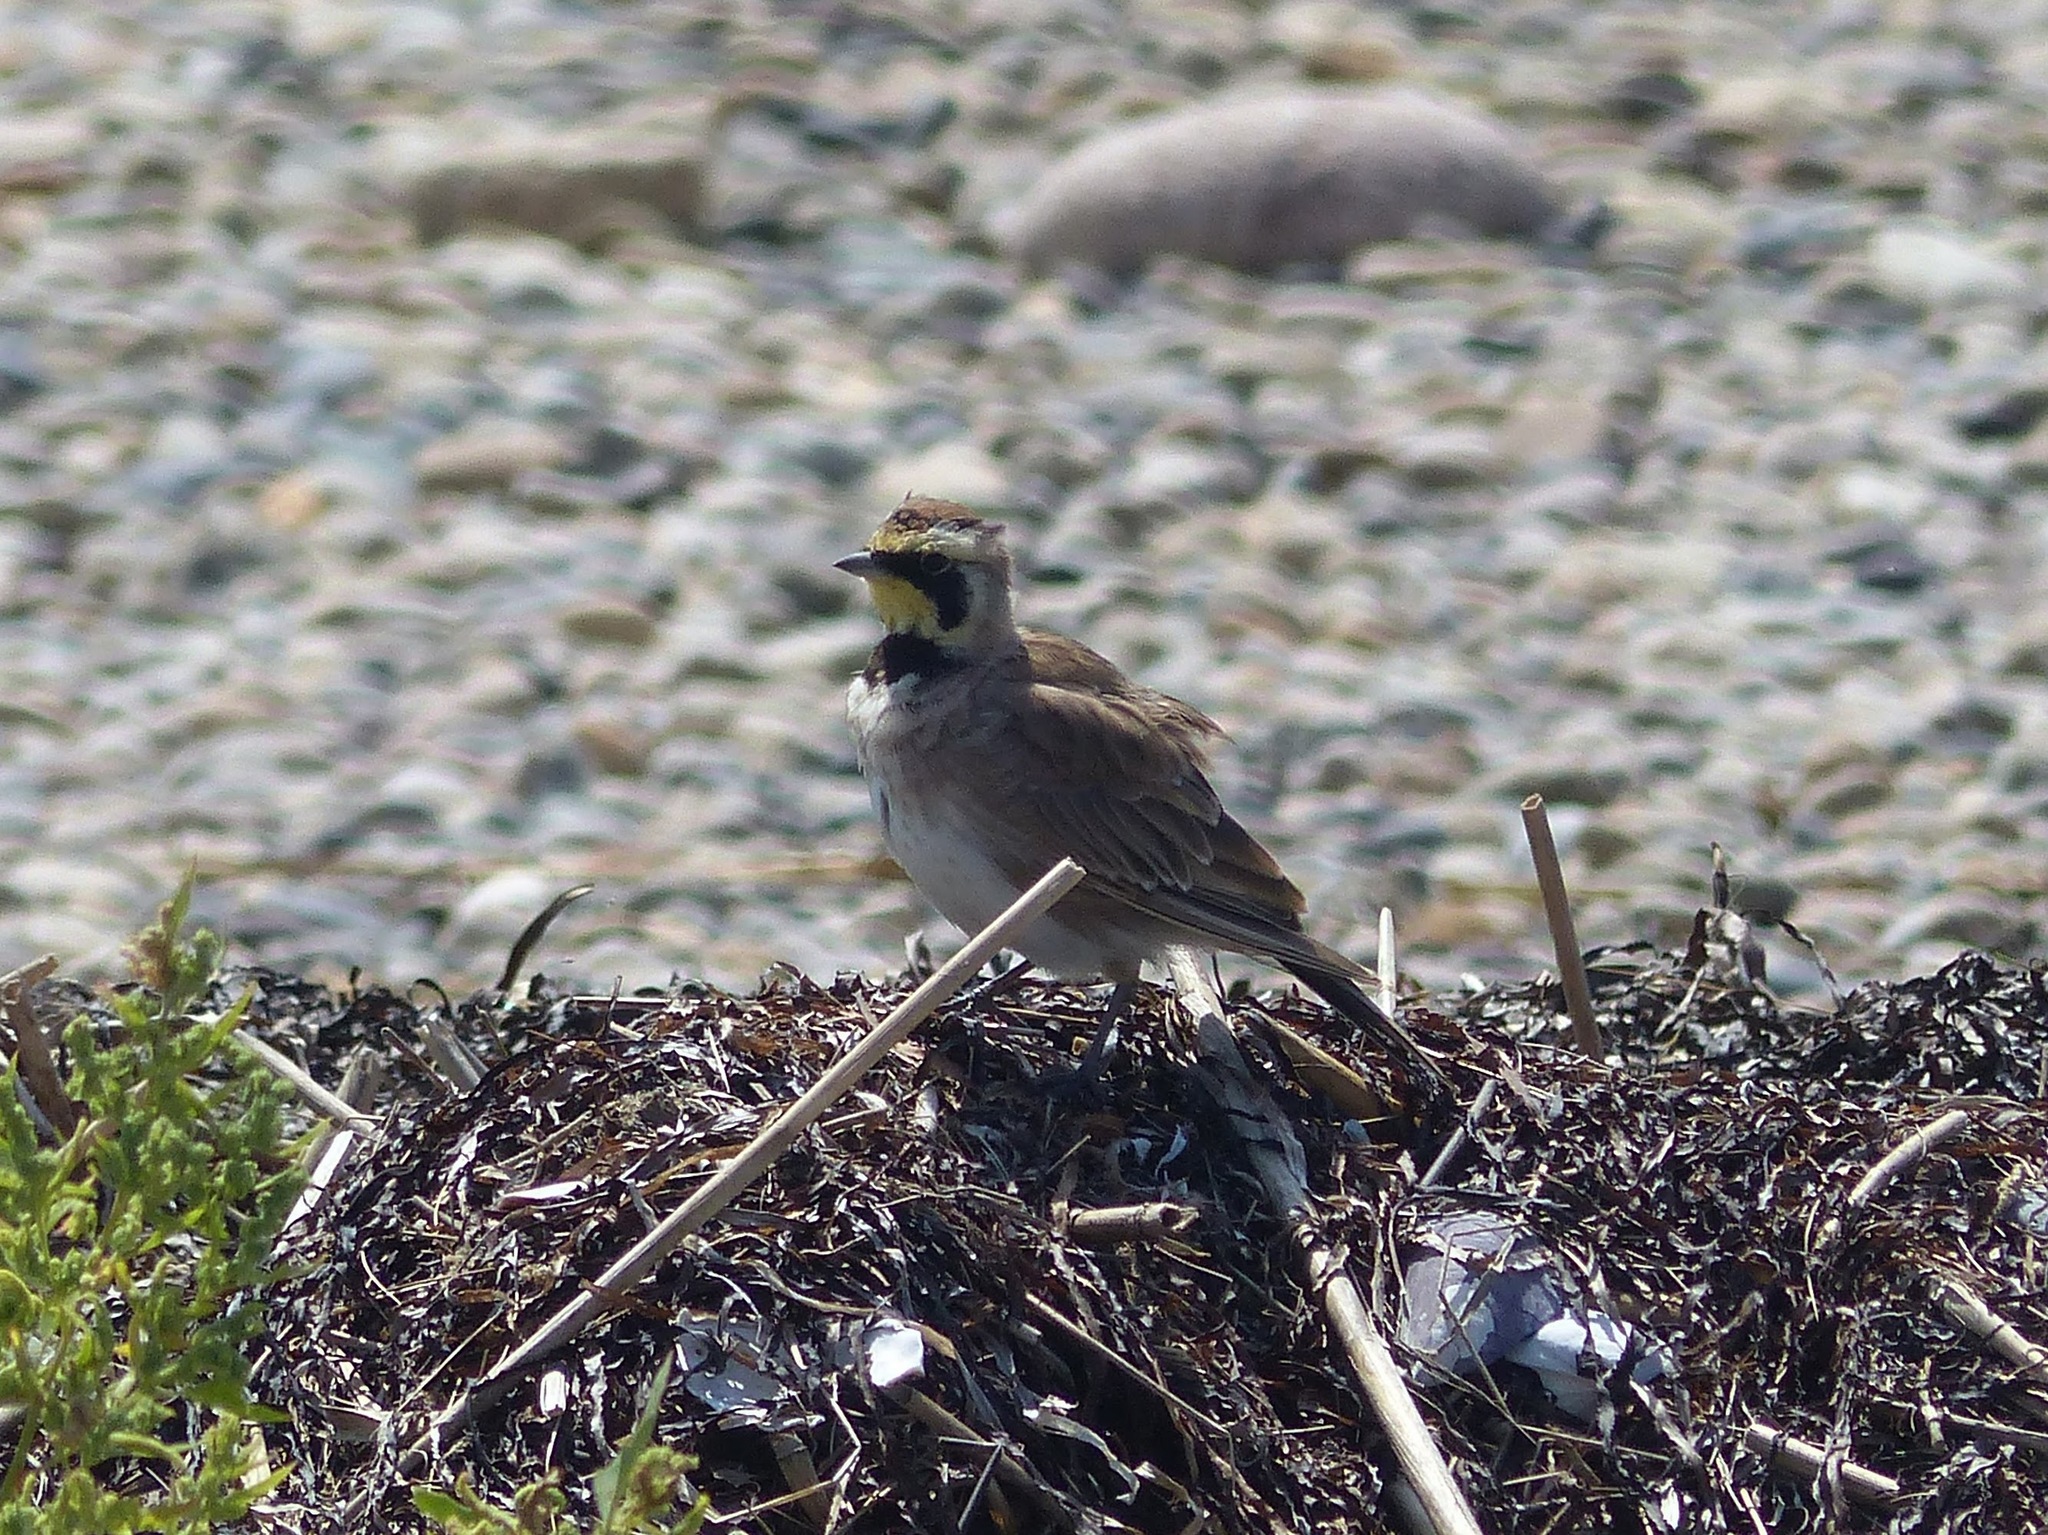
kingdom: Animalia
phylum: Chordata
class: Aves
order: Passeriformes
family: Alaudidae
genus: Eremophila
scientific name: Eremophila alpestris
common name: Horned lark
